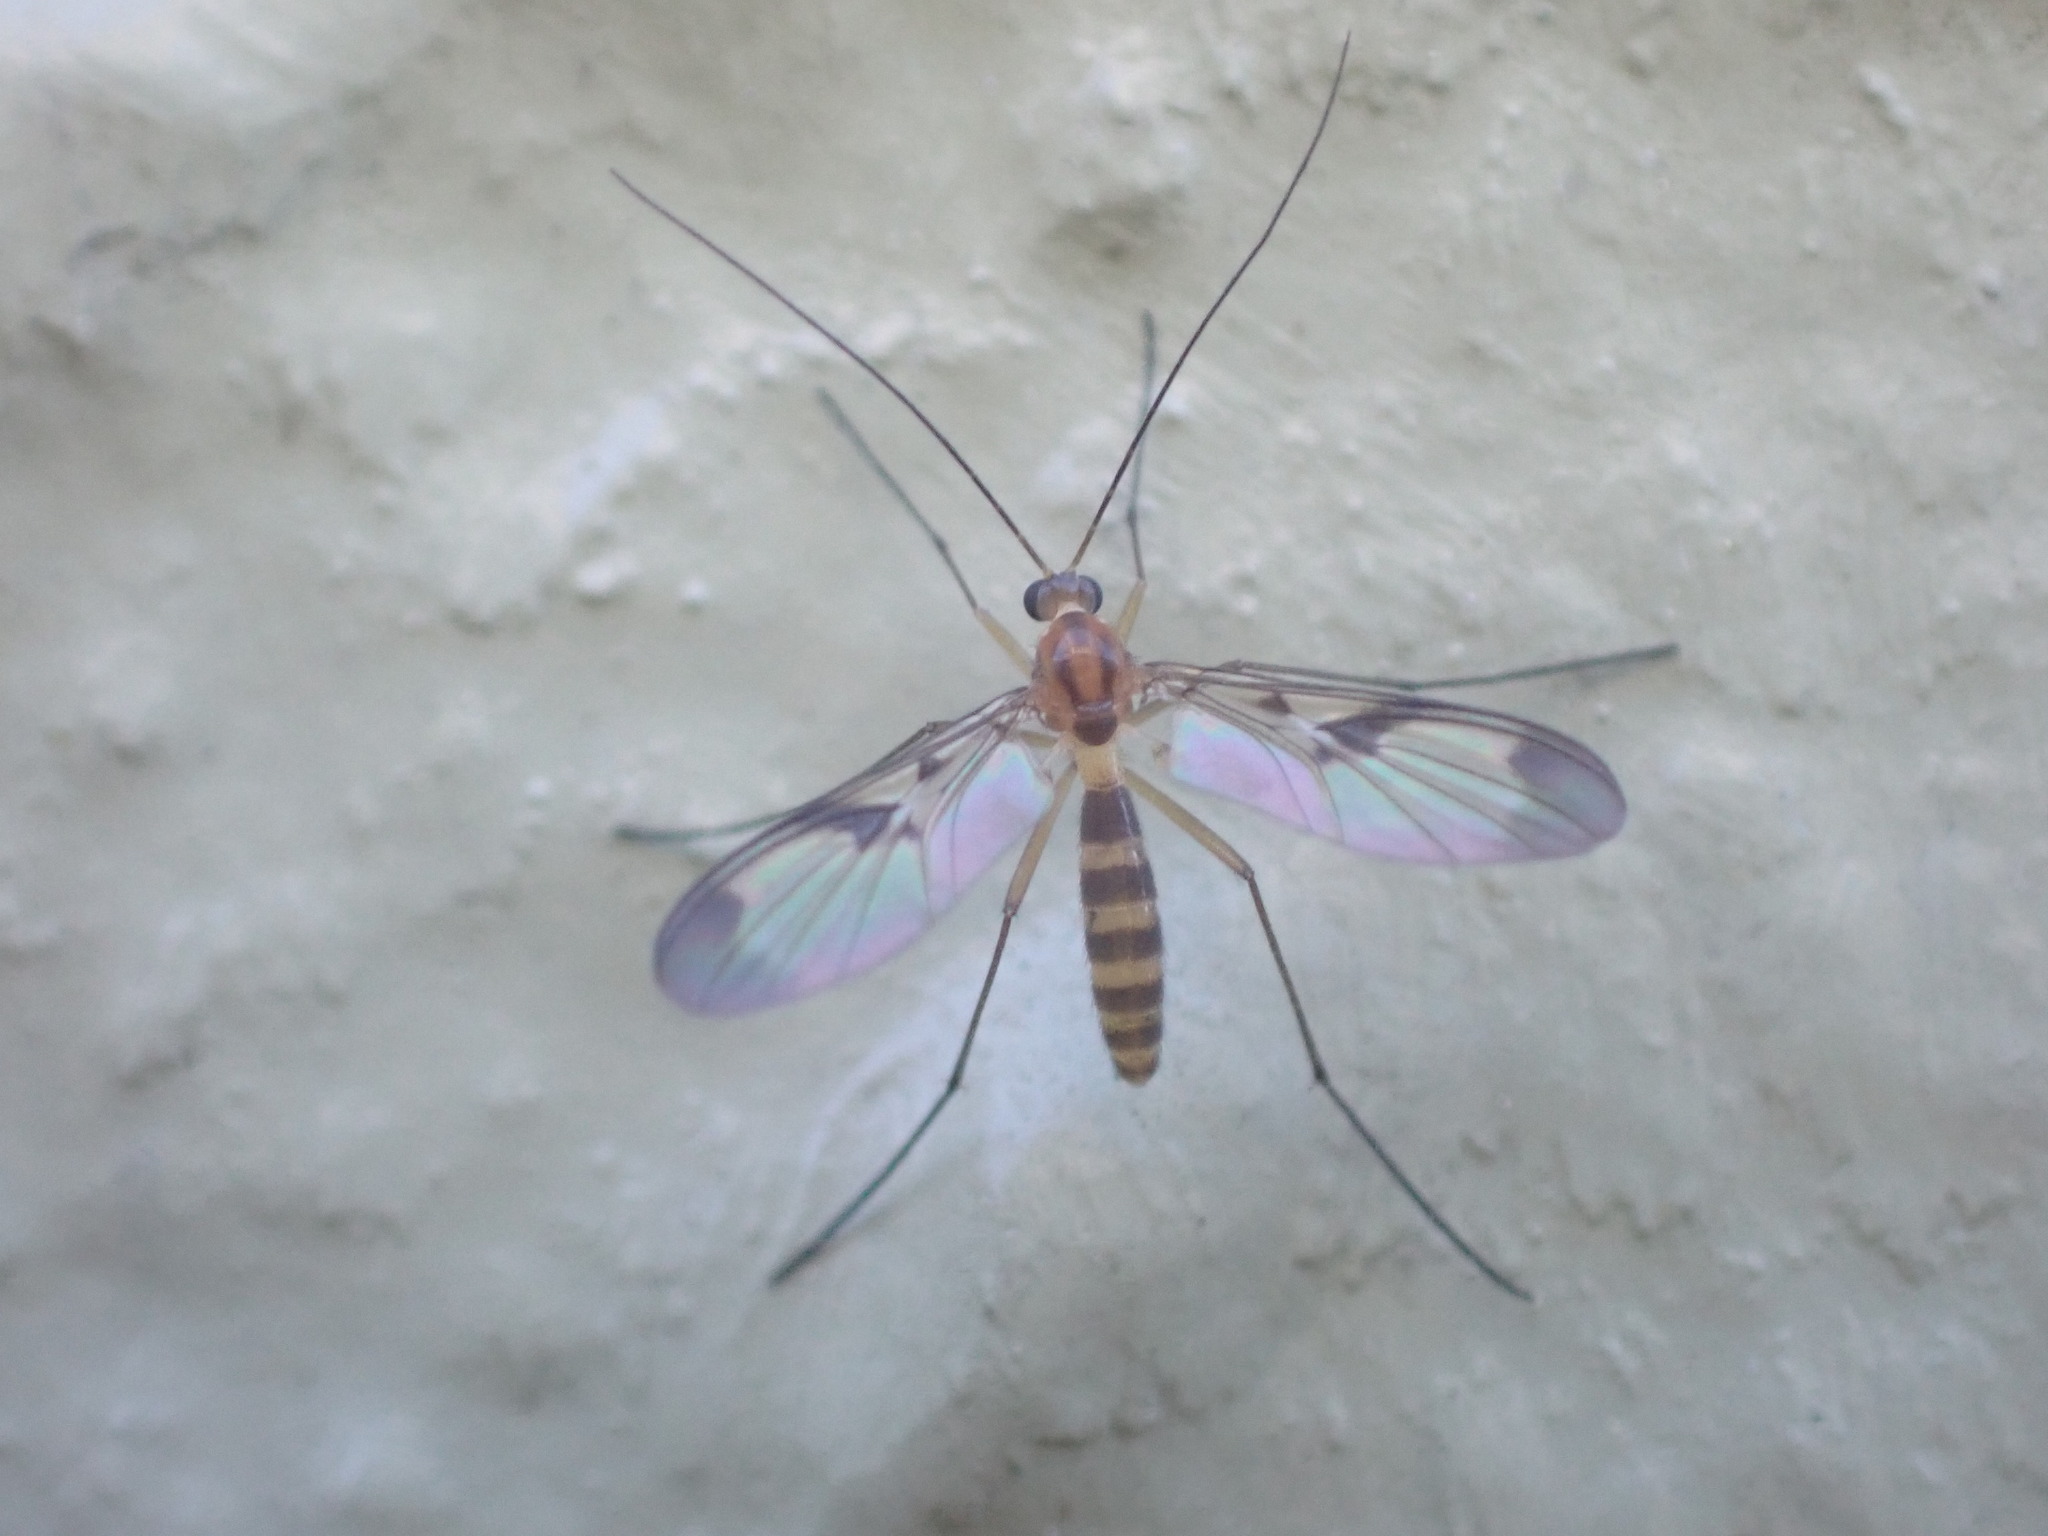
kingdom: Animalia
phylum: Arthropoda
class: Insecta
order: Diptera
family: Keroplatidae
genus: Macrocera
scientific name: Macrocera scoparia
